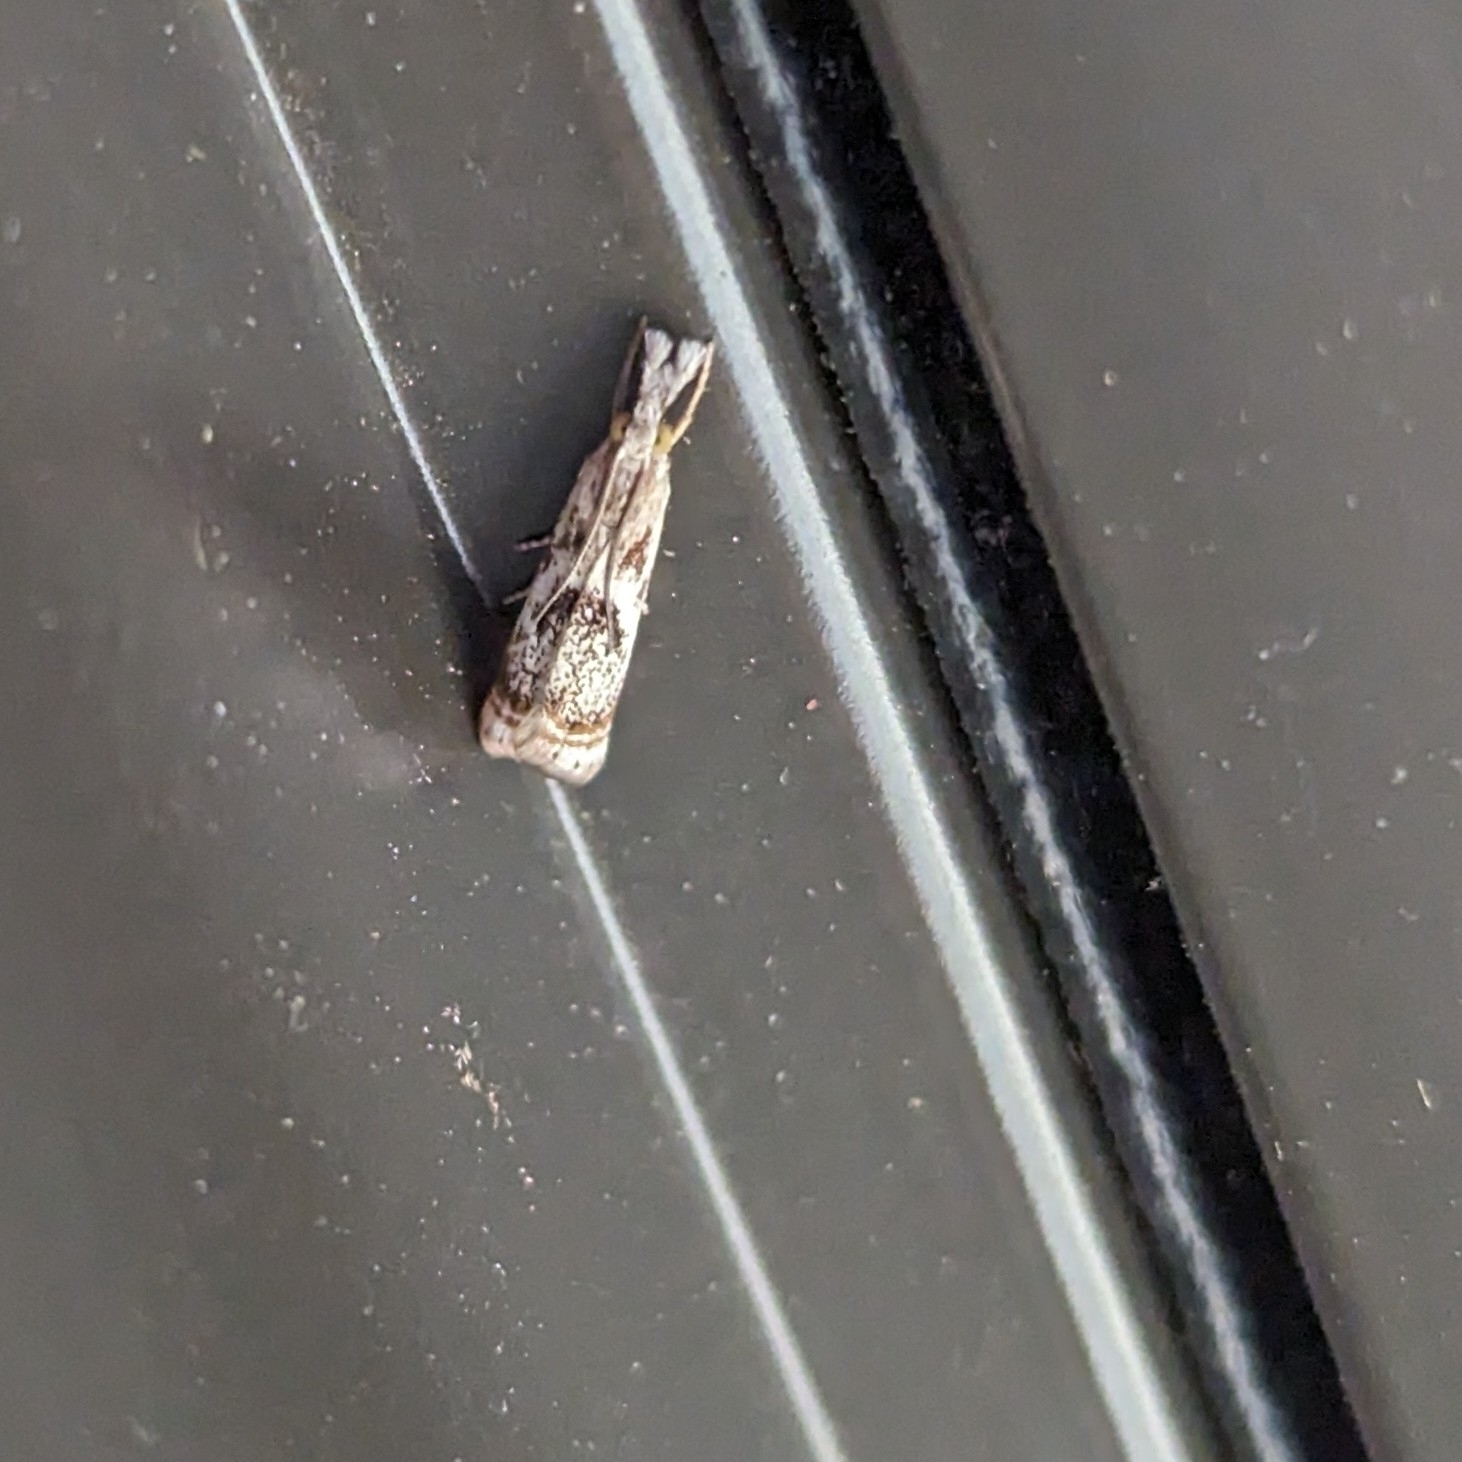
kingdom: Animalia
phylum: Arthropoda
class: Insecta
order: Lepidoptera
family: Crambidae
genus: Microcrambus
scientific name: Microcrambus elegans
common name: Elegant grass-veneer
